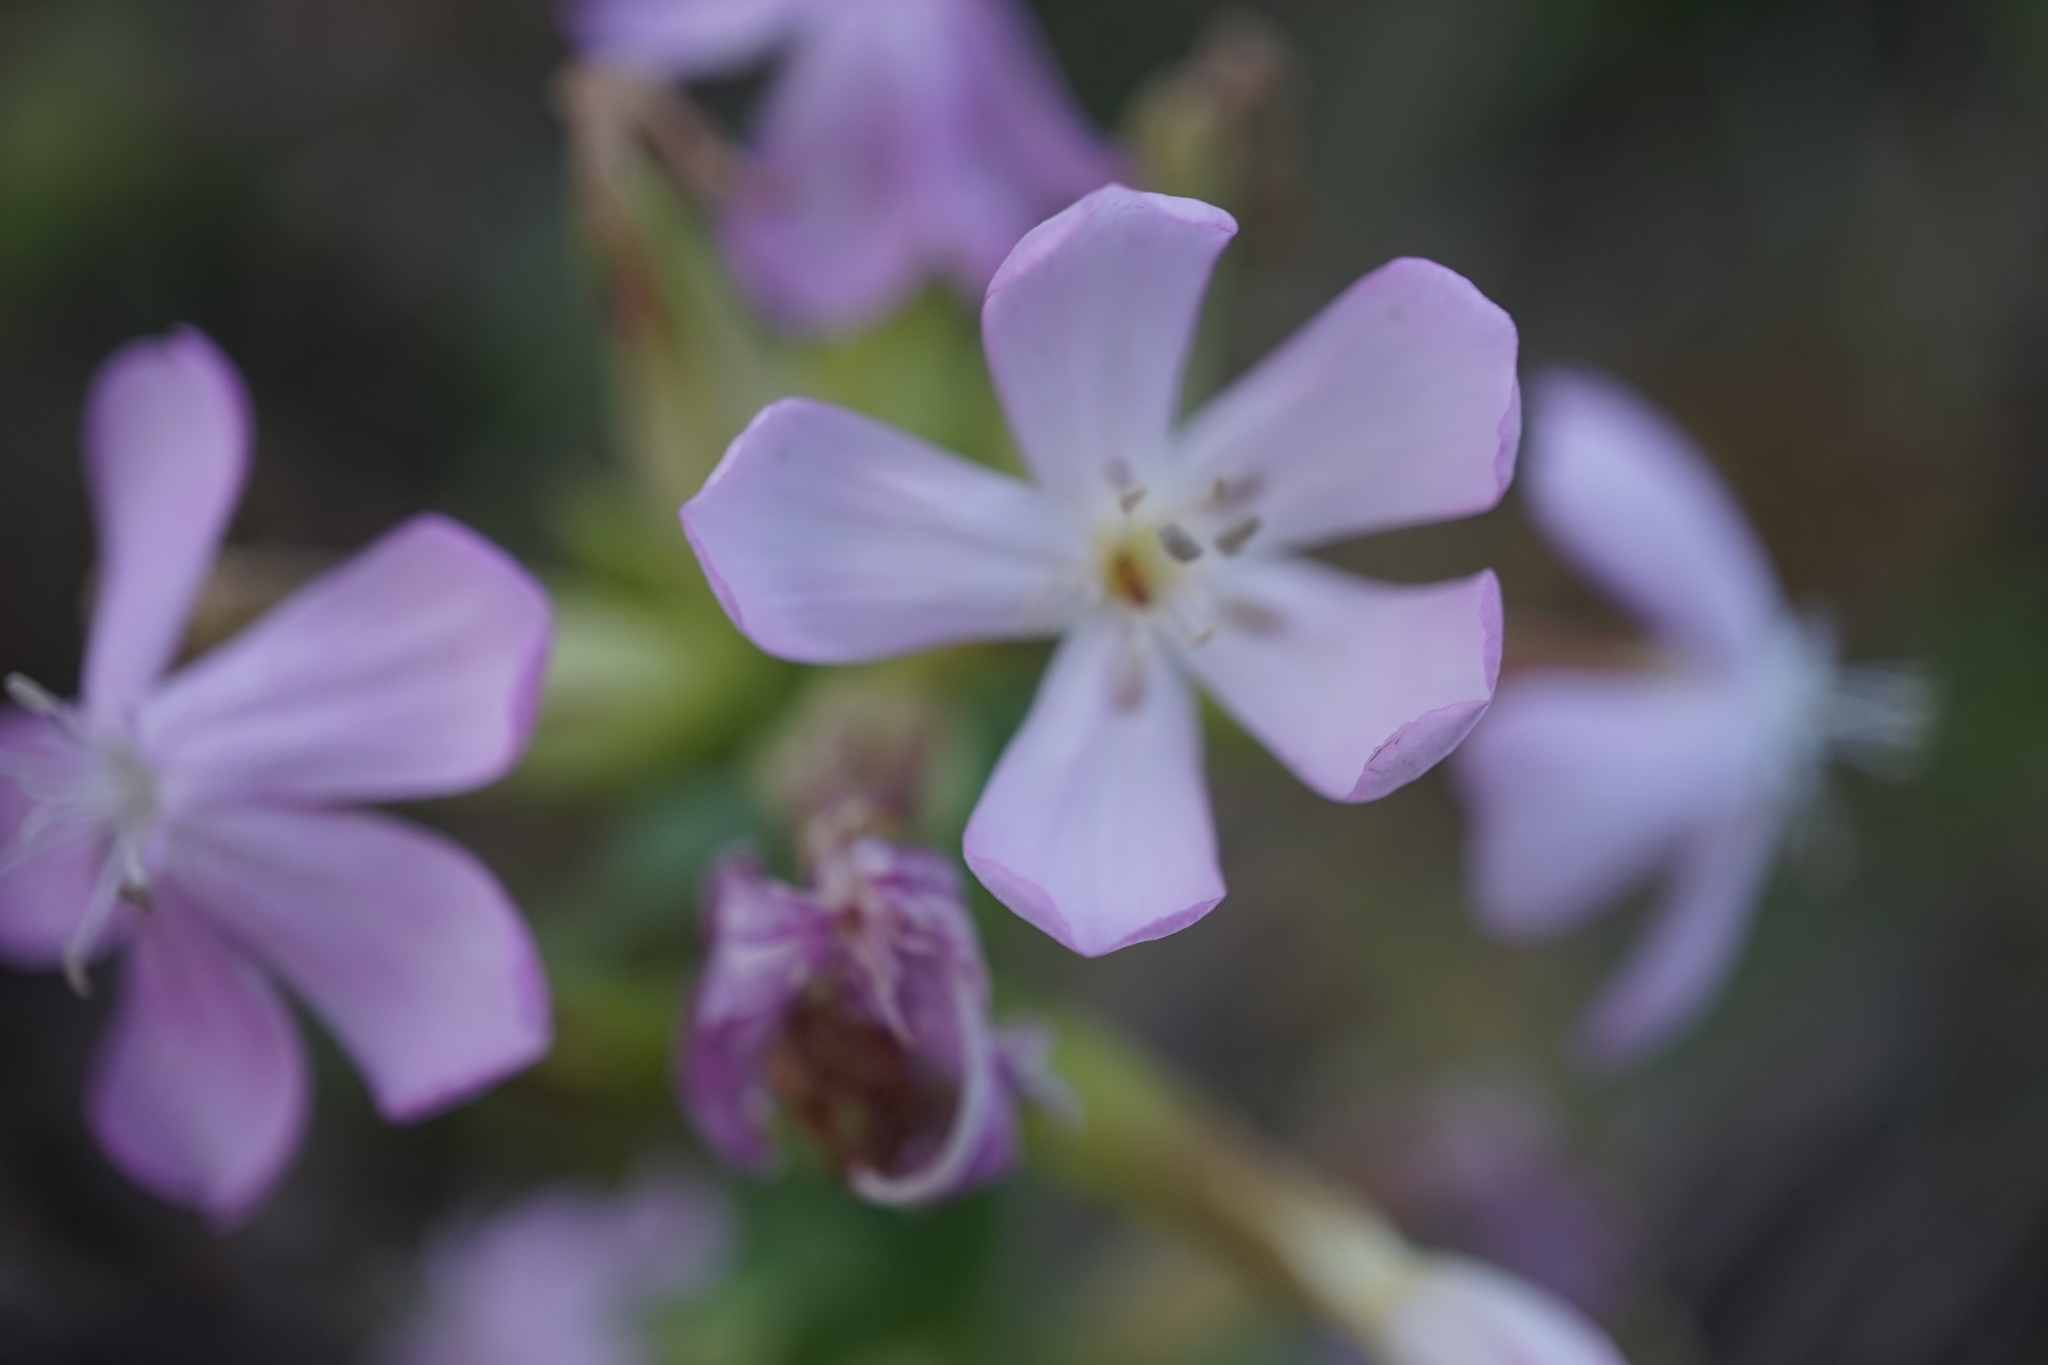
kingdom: Plantae
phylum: Tracheophyta
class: Magnoliopsida
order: Caryophyllales
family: Caryophyllaceae
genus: Saponaria
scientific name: Saponaria officinalis
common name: Soapwort
